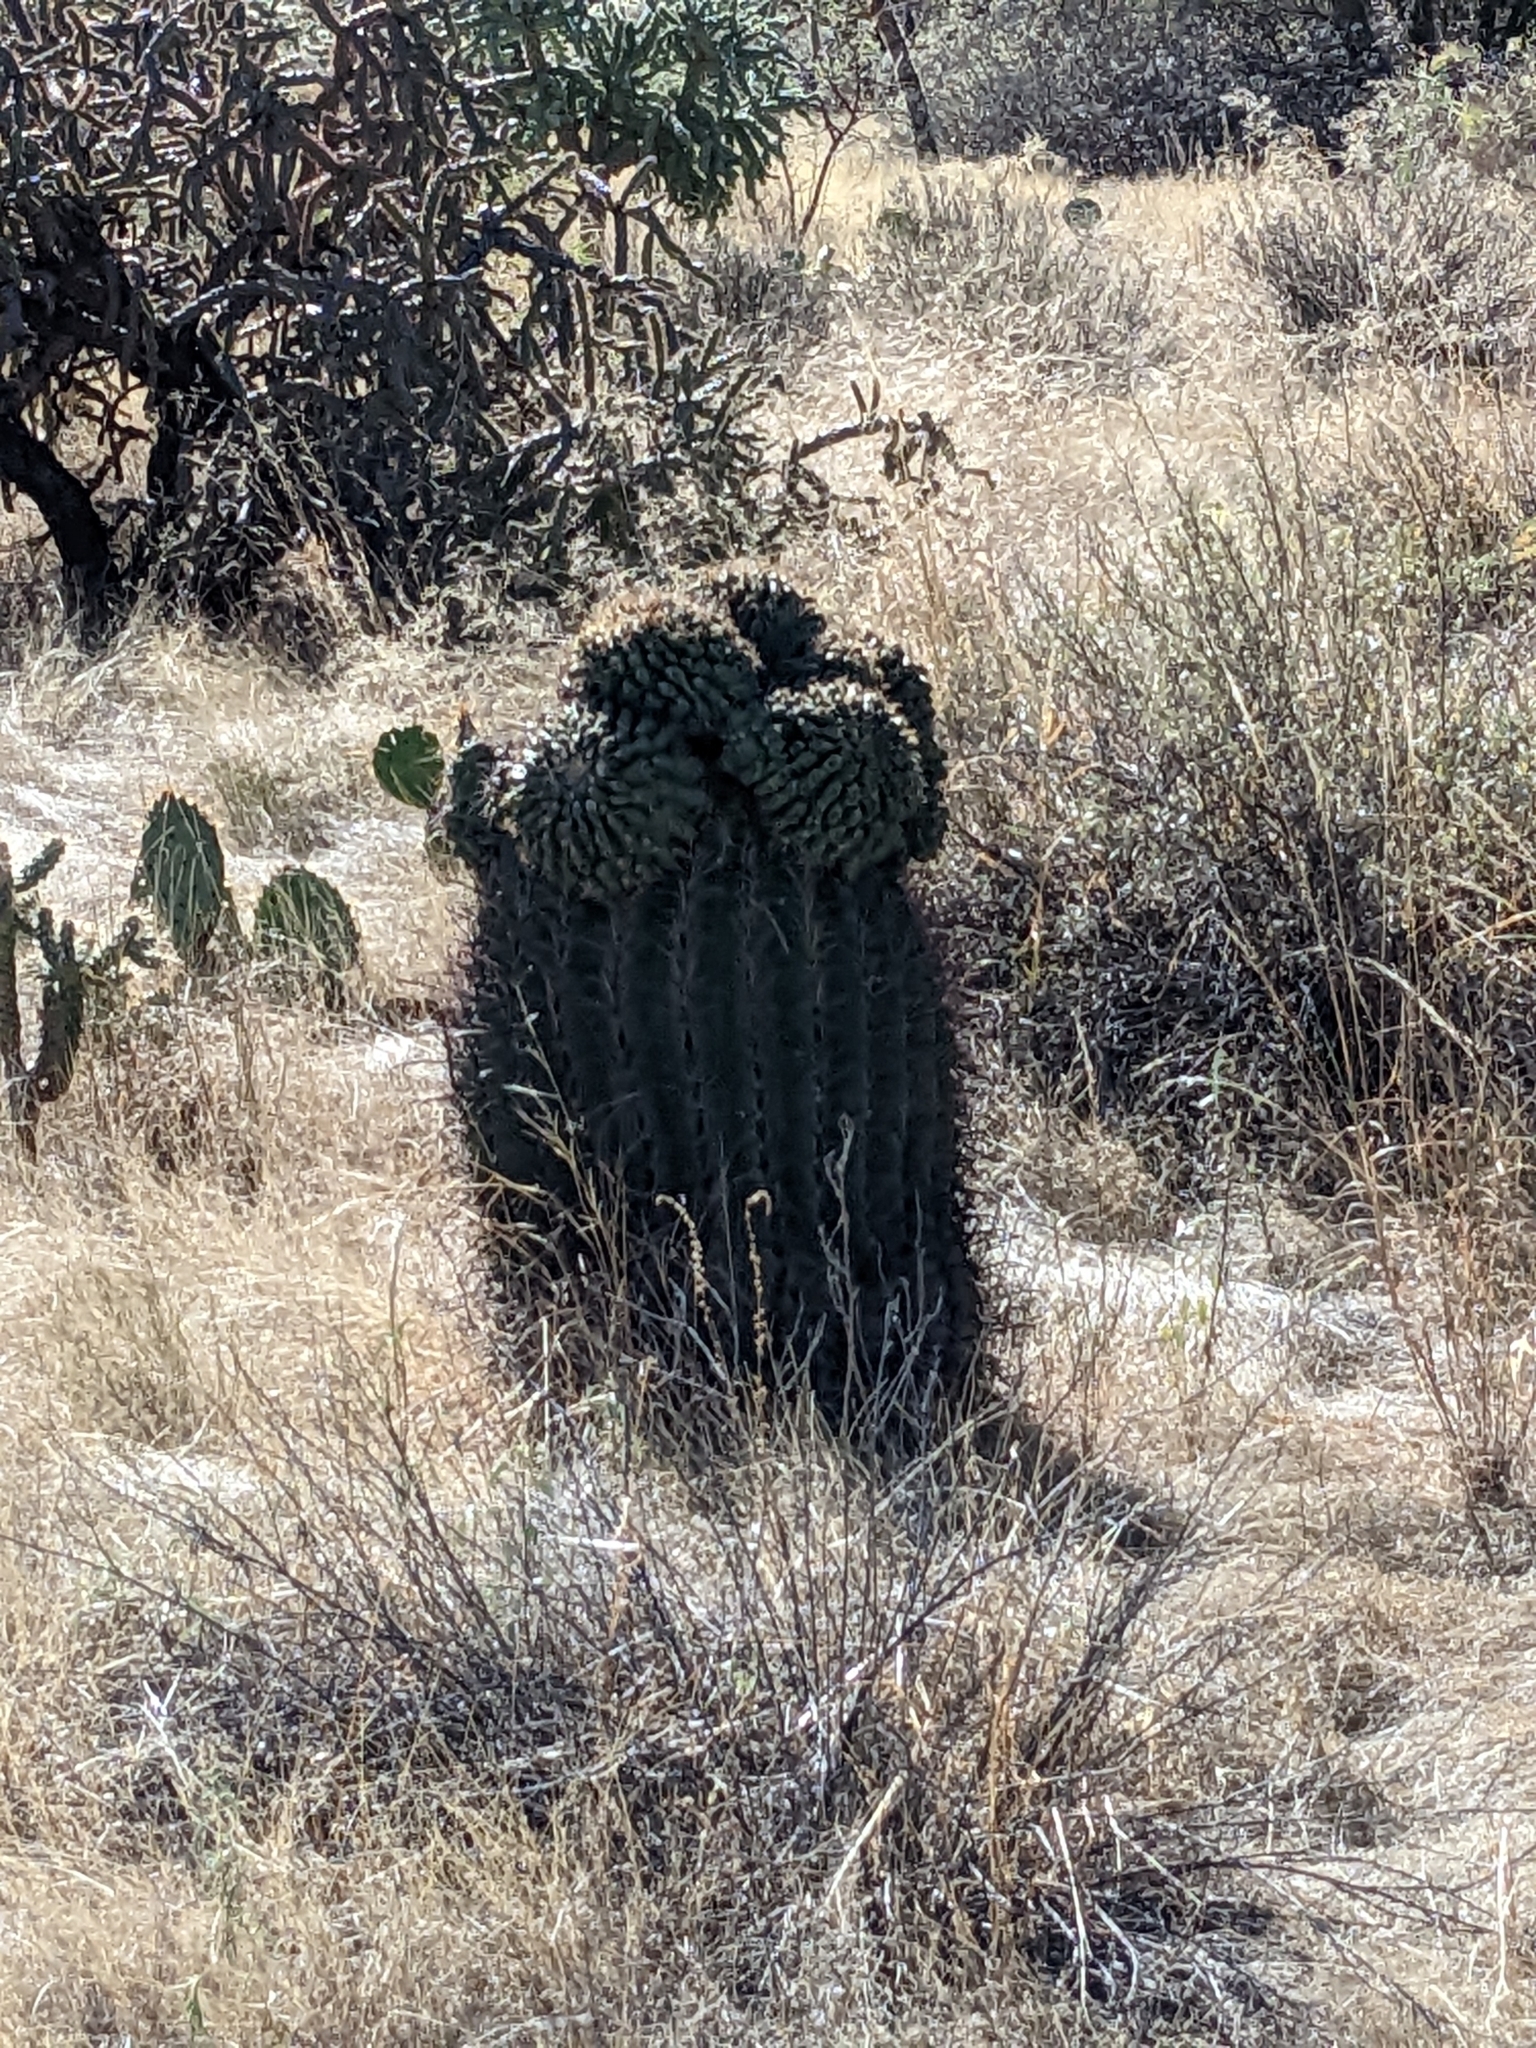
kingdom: Plantae
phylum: Tracheophyta
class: Magnoliopsida
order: Caryophyllales
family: Cactaceae
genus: Ferocactus
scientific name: Ferocactus wislizeni
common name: Candy barrel cactus
